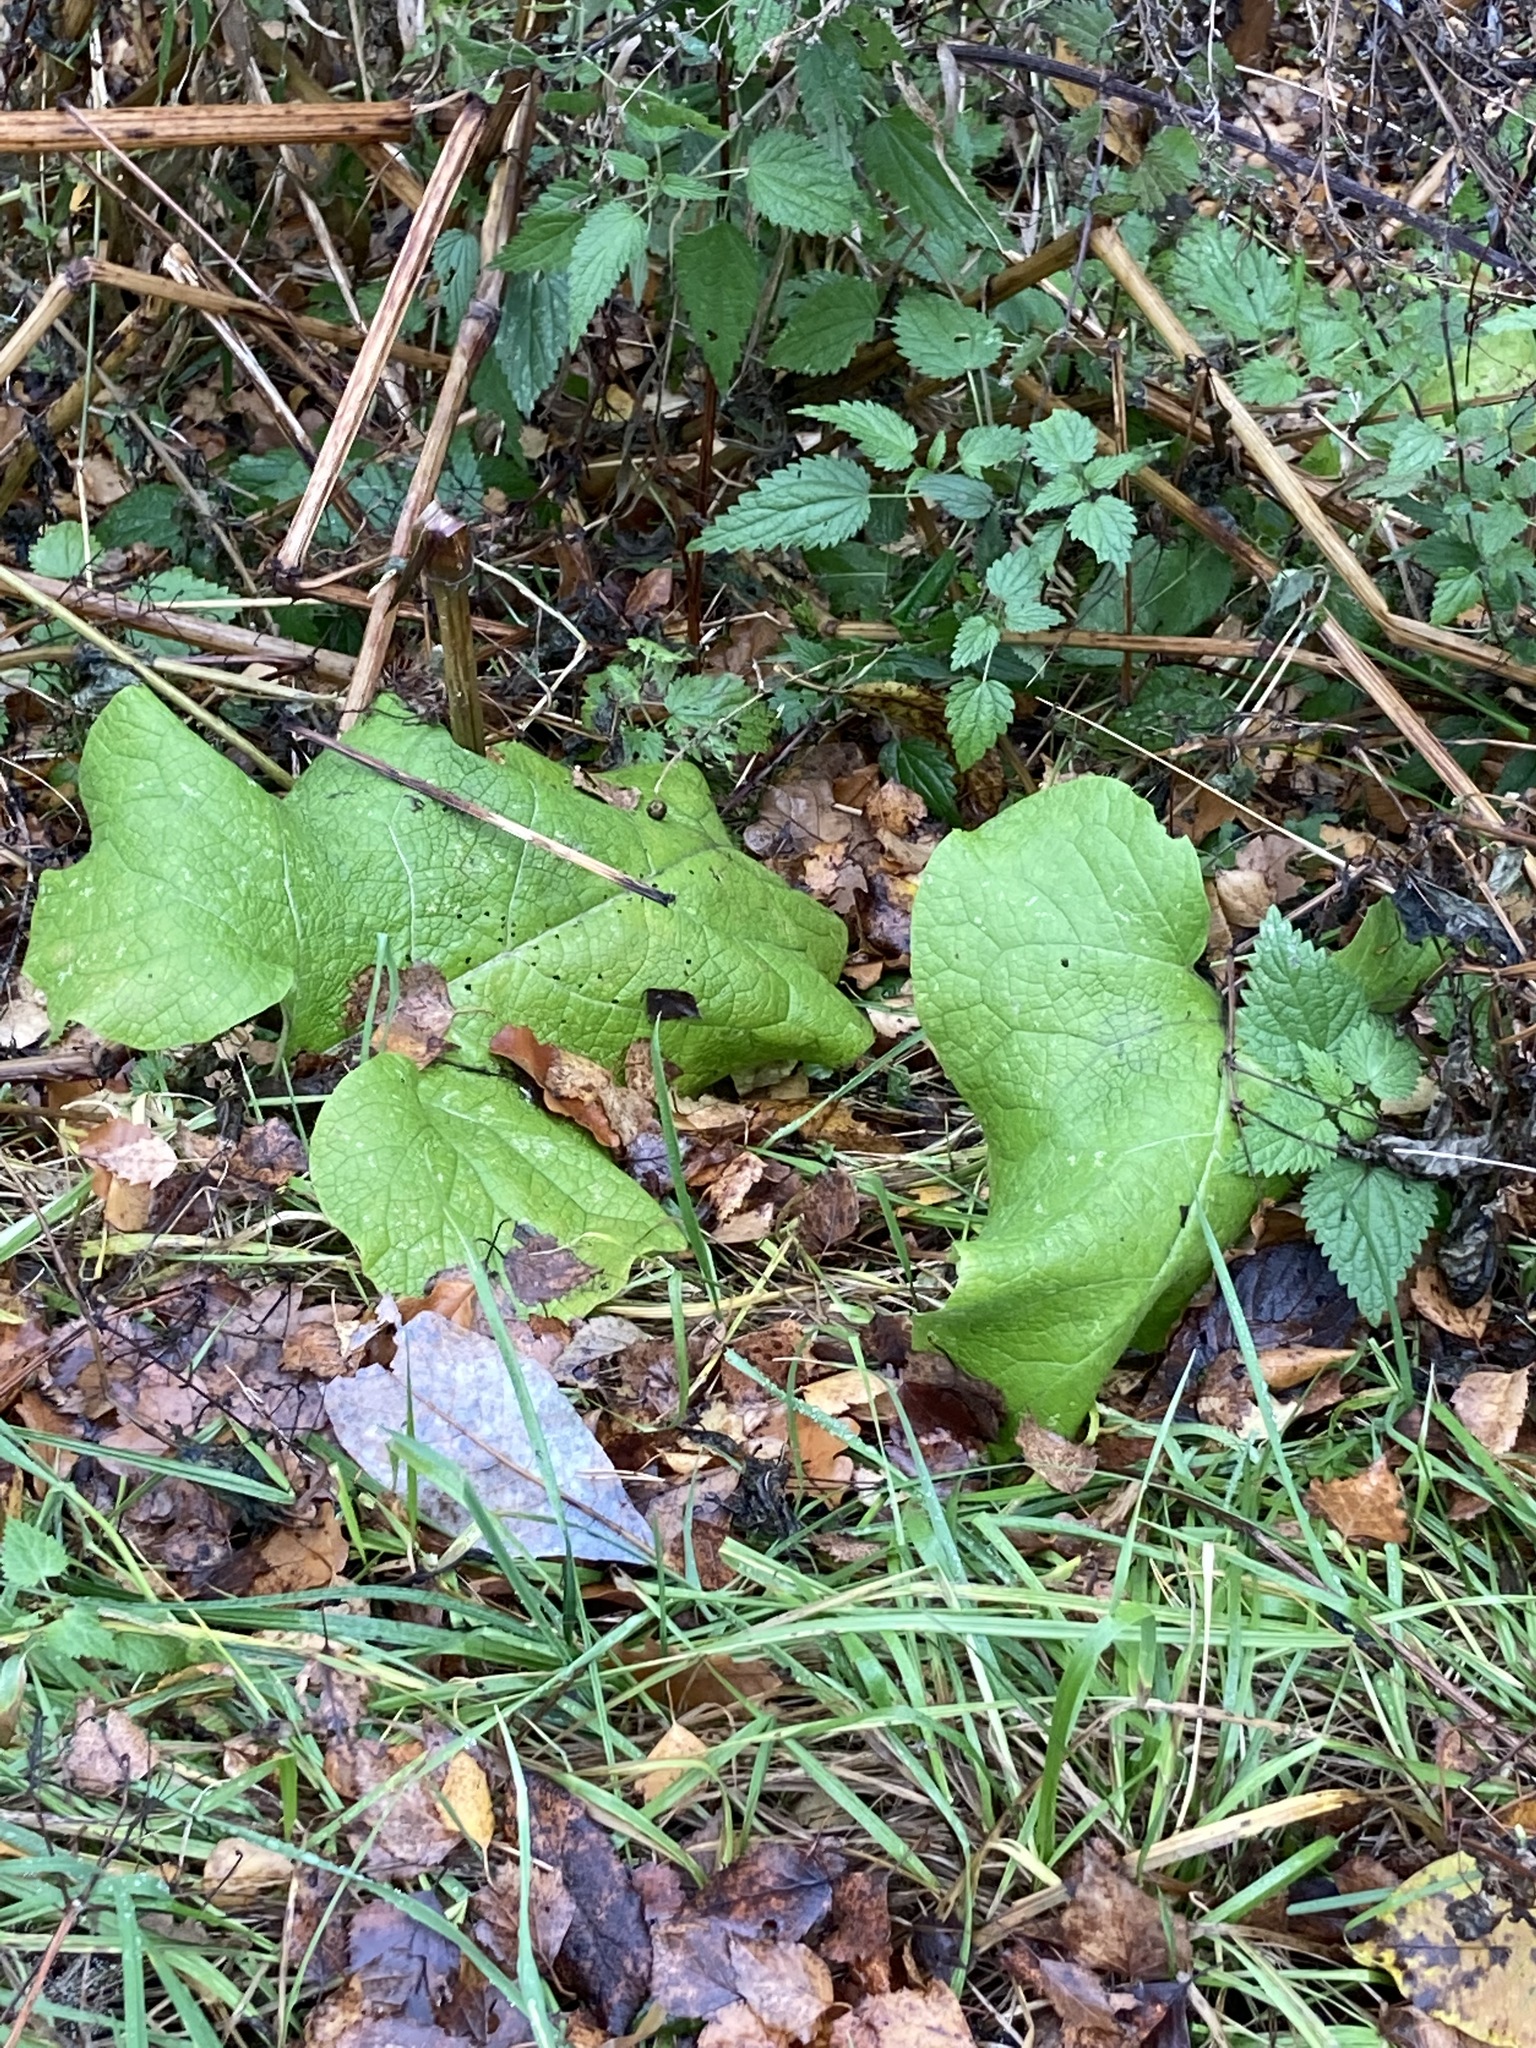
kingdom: Plantae
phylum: Tracheophyta
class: Magnoliopsida
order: Asterales
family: Asteraceae
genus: Arctium
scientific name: Arctium
